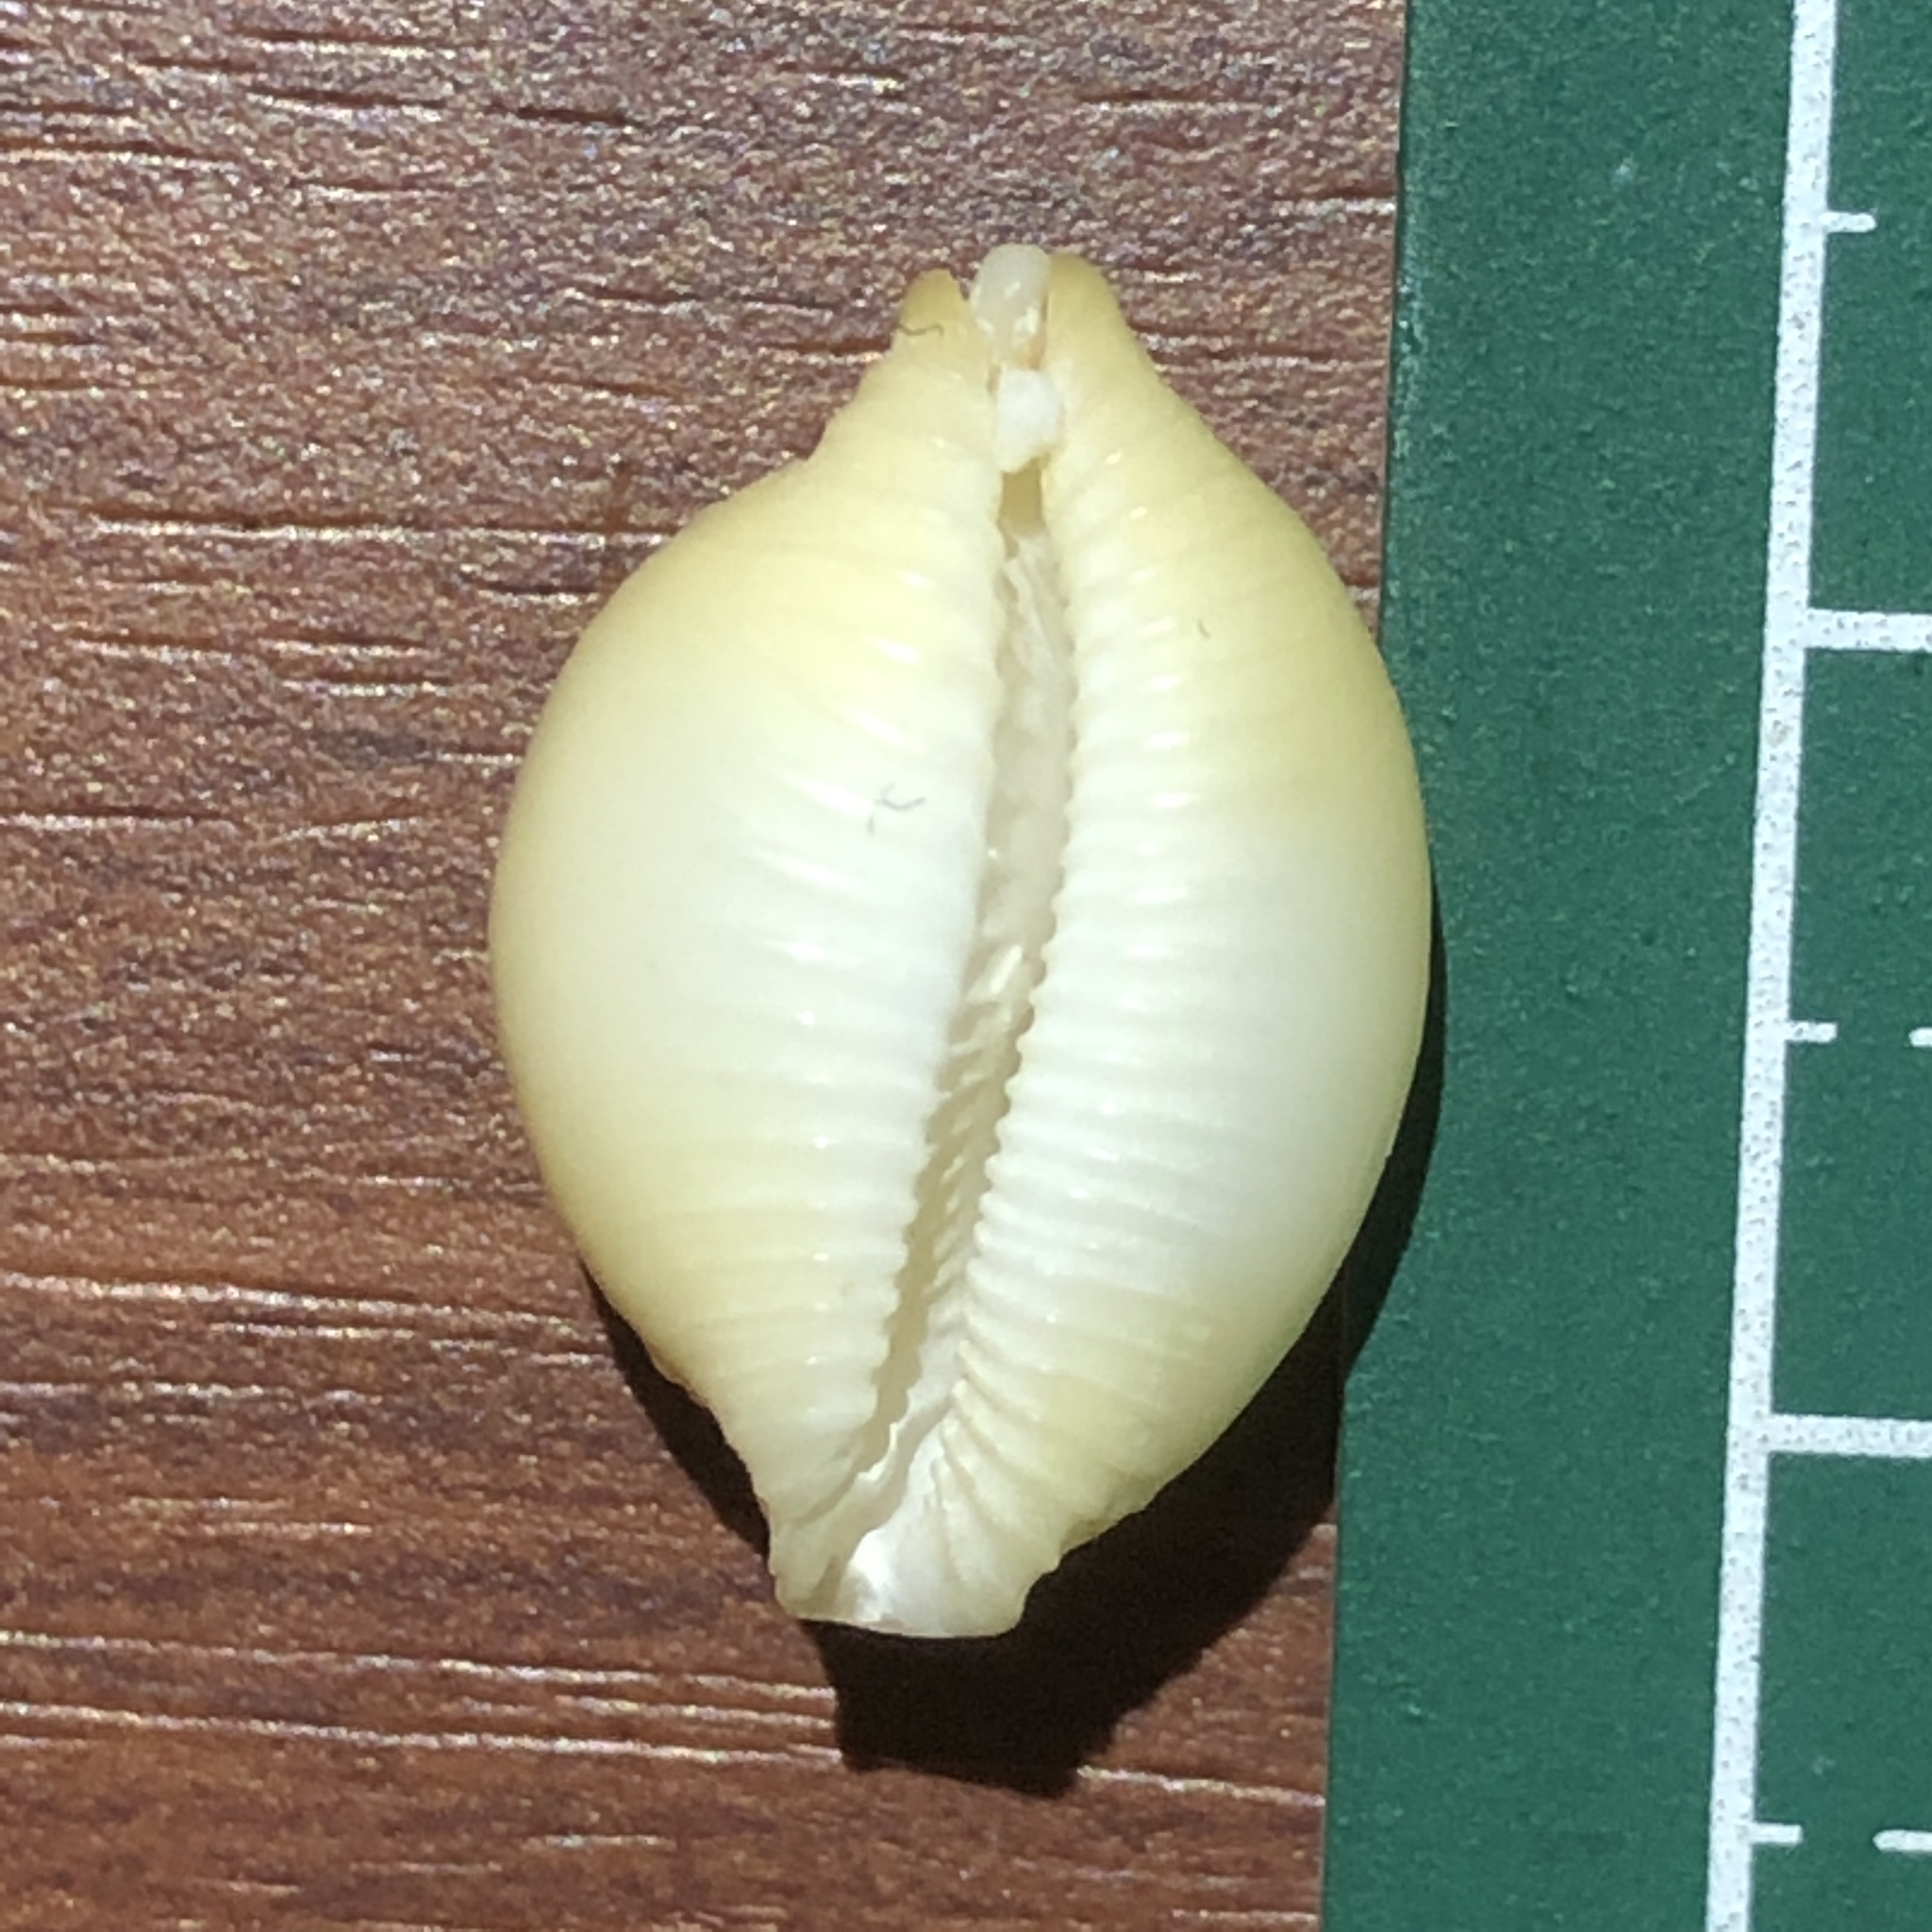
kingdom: Animalia
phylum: Mollusca
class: Gastropoda
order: Littorinimorpha
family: Cypraeidae
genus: Pustularia
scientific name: Pustularia margarita
